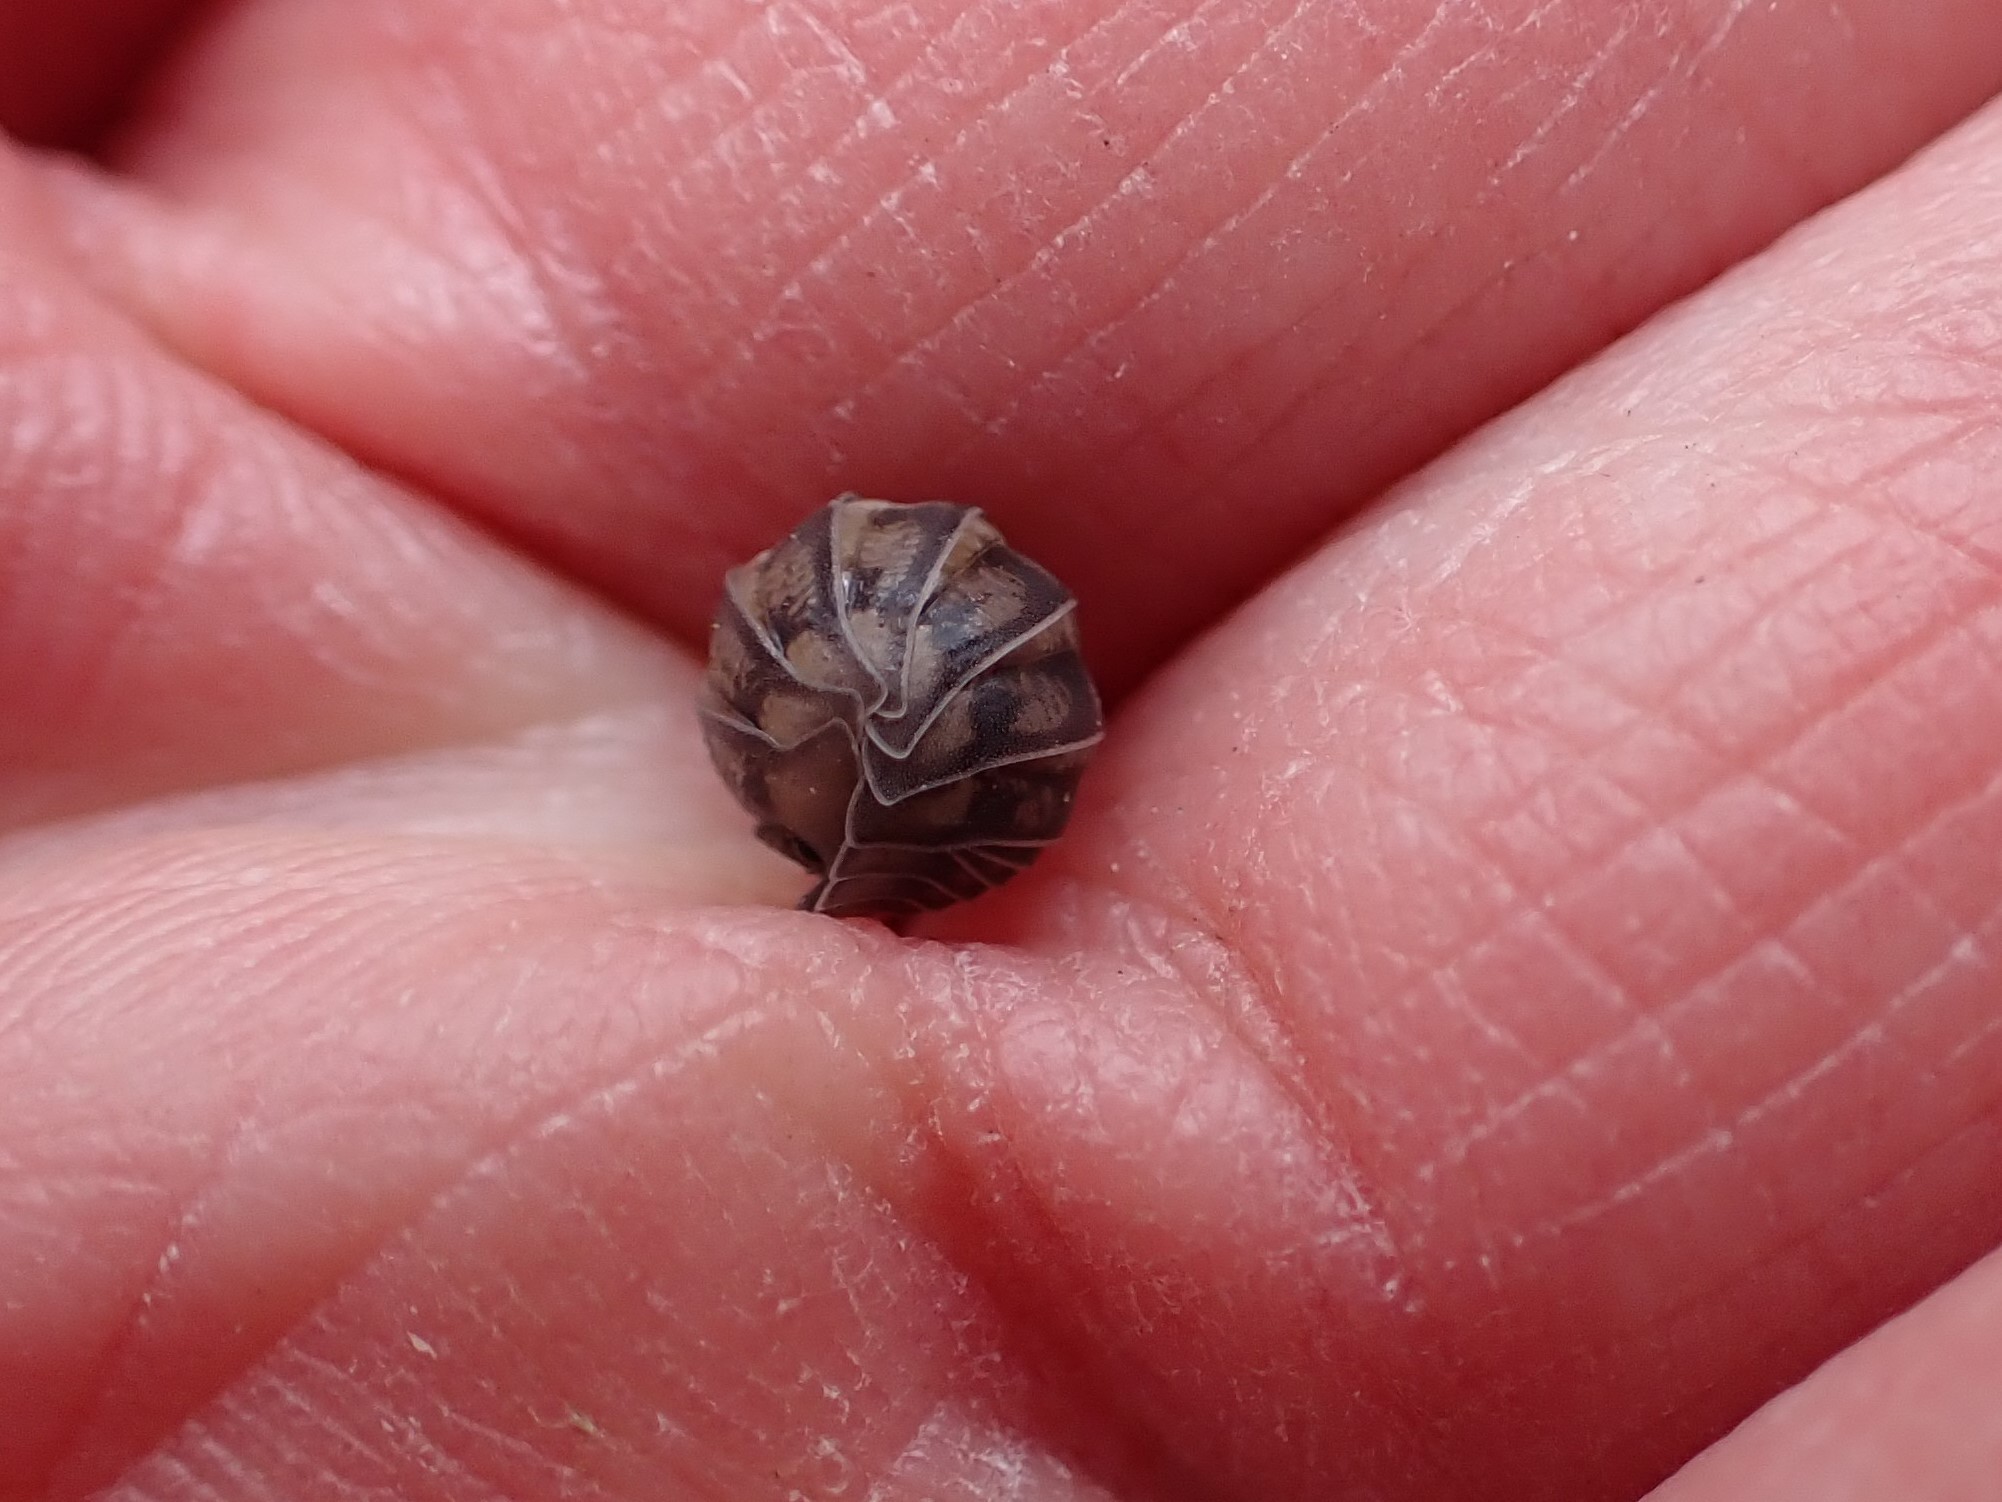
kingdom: Animalia
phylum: Arthropoda
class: Malacostraca
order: Isopoda
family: Armadillidiidae
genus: Armadillidium
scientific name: Armadillidium nasatum
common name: Isopod
